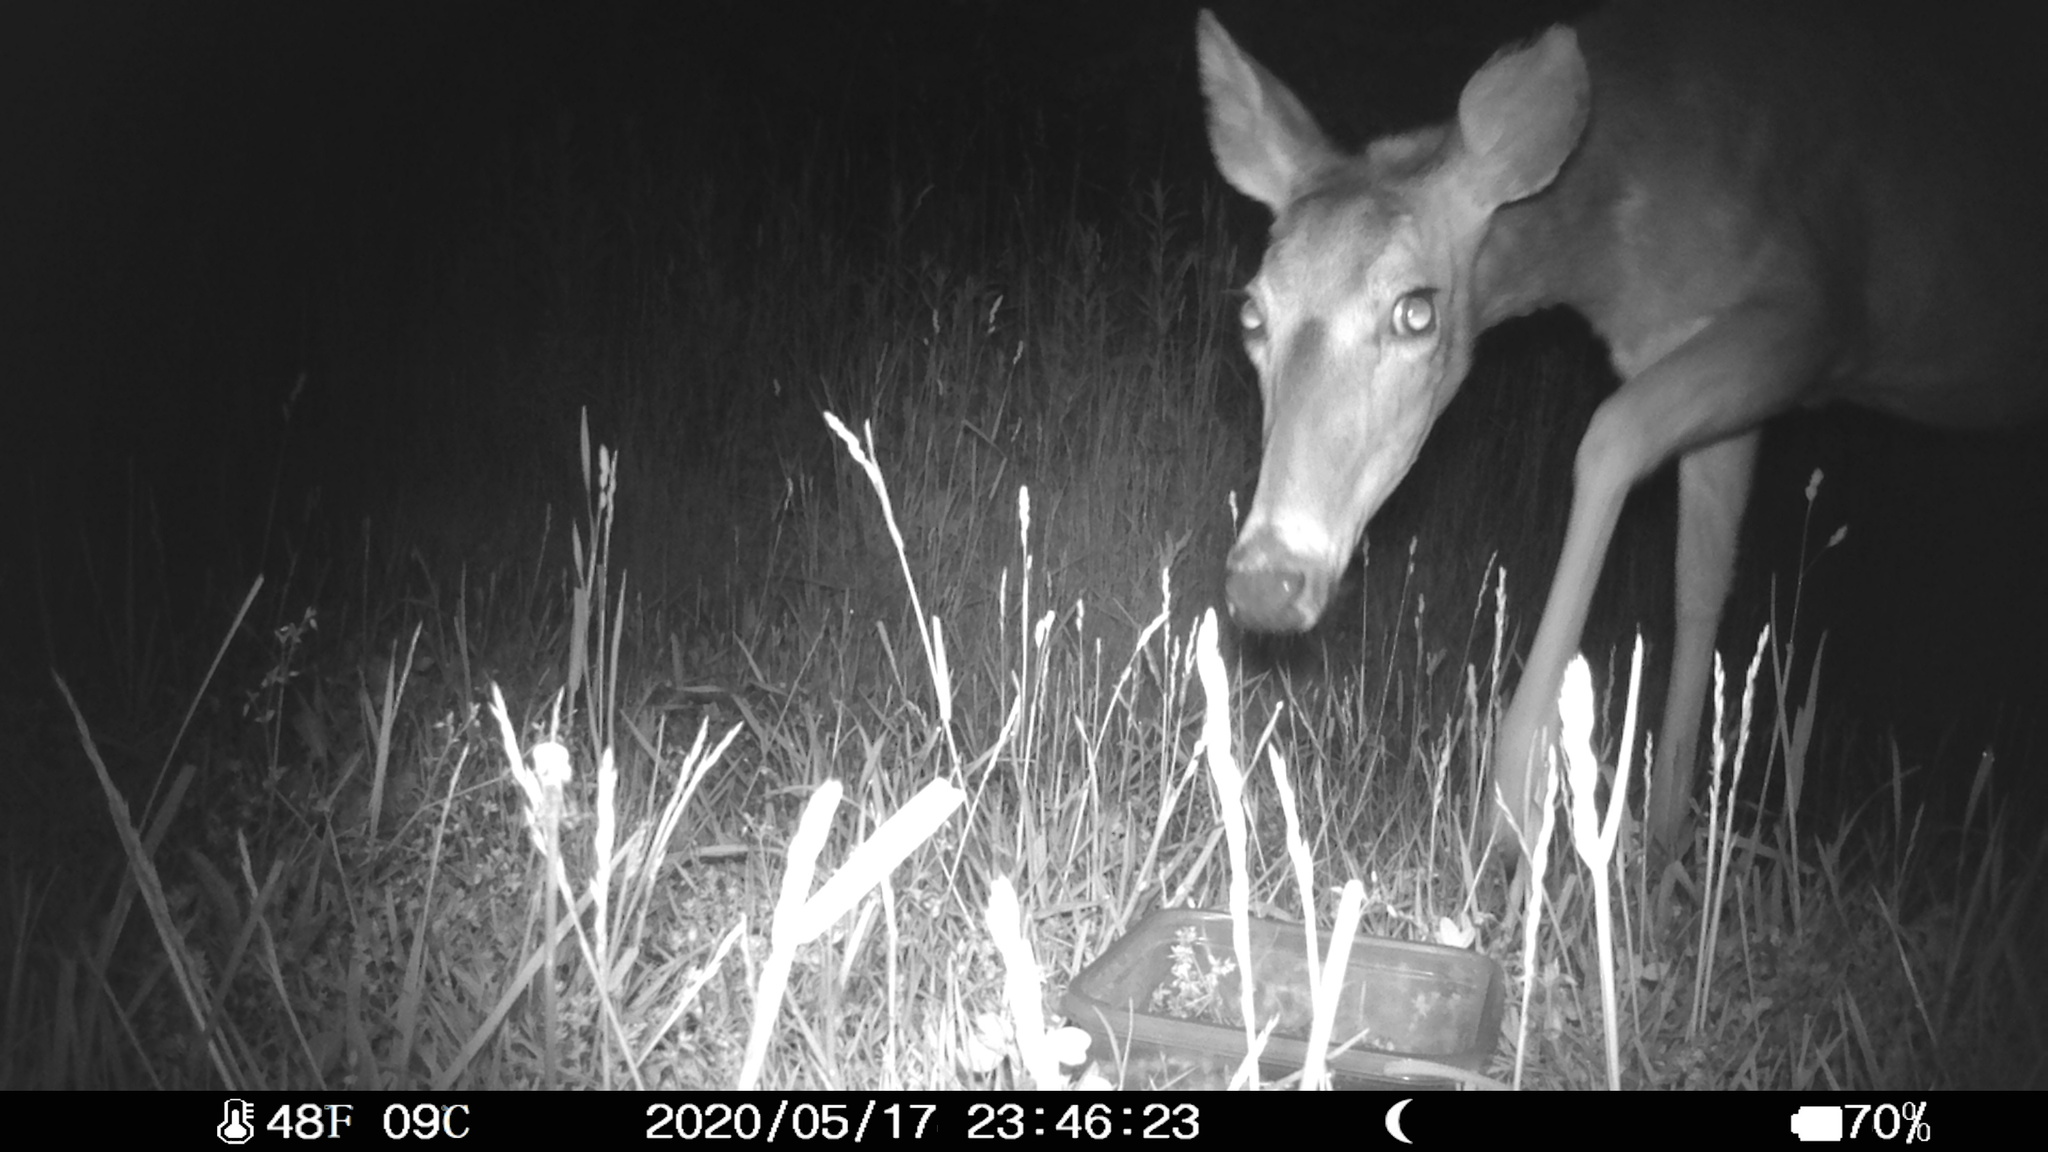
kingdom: Animalia
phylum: Chordata
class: Mammalia
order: Artiodactyla
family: Cervidae
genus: Odocoileus
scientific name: Odocoileus virginianus
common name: White-tailed deer
